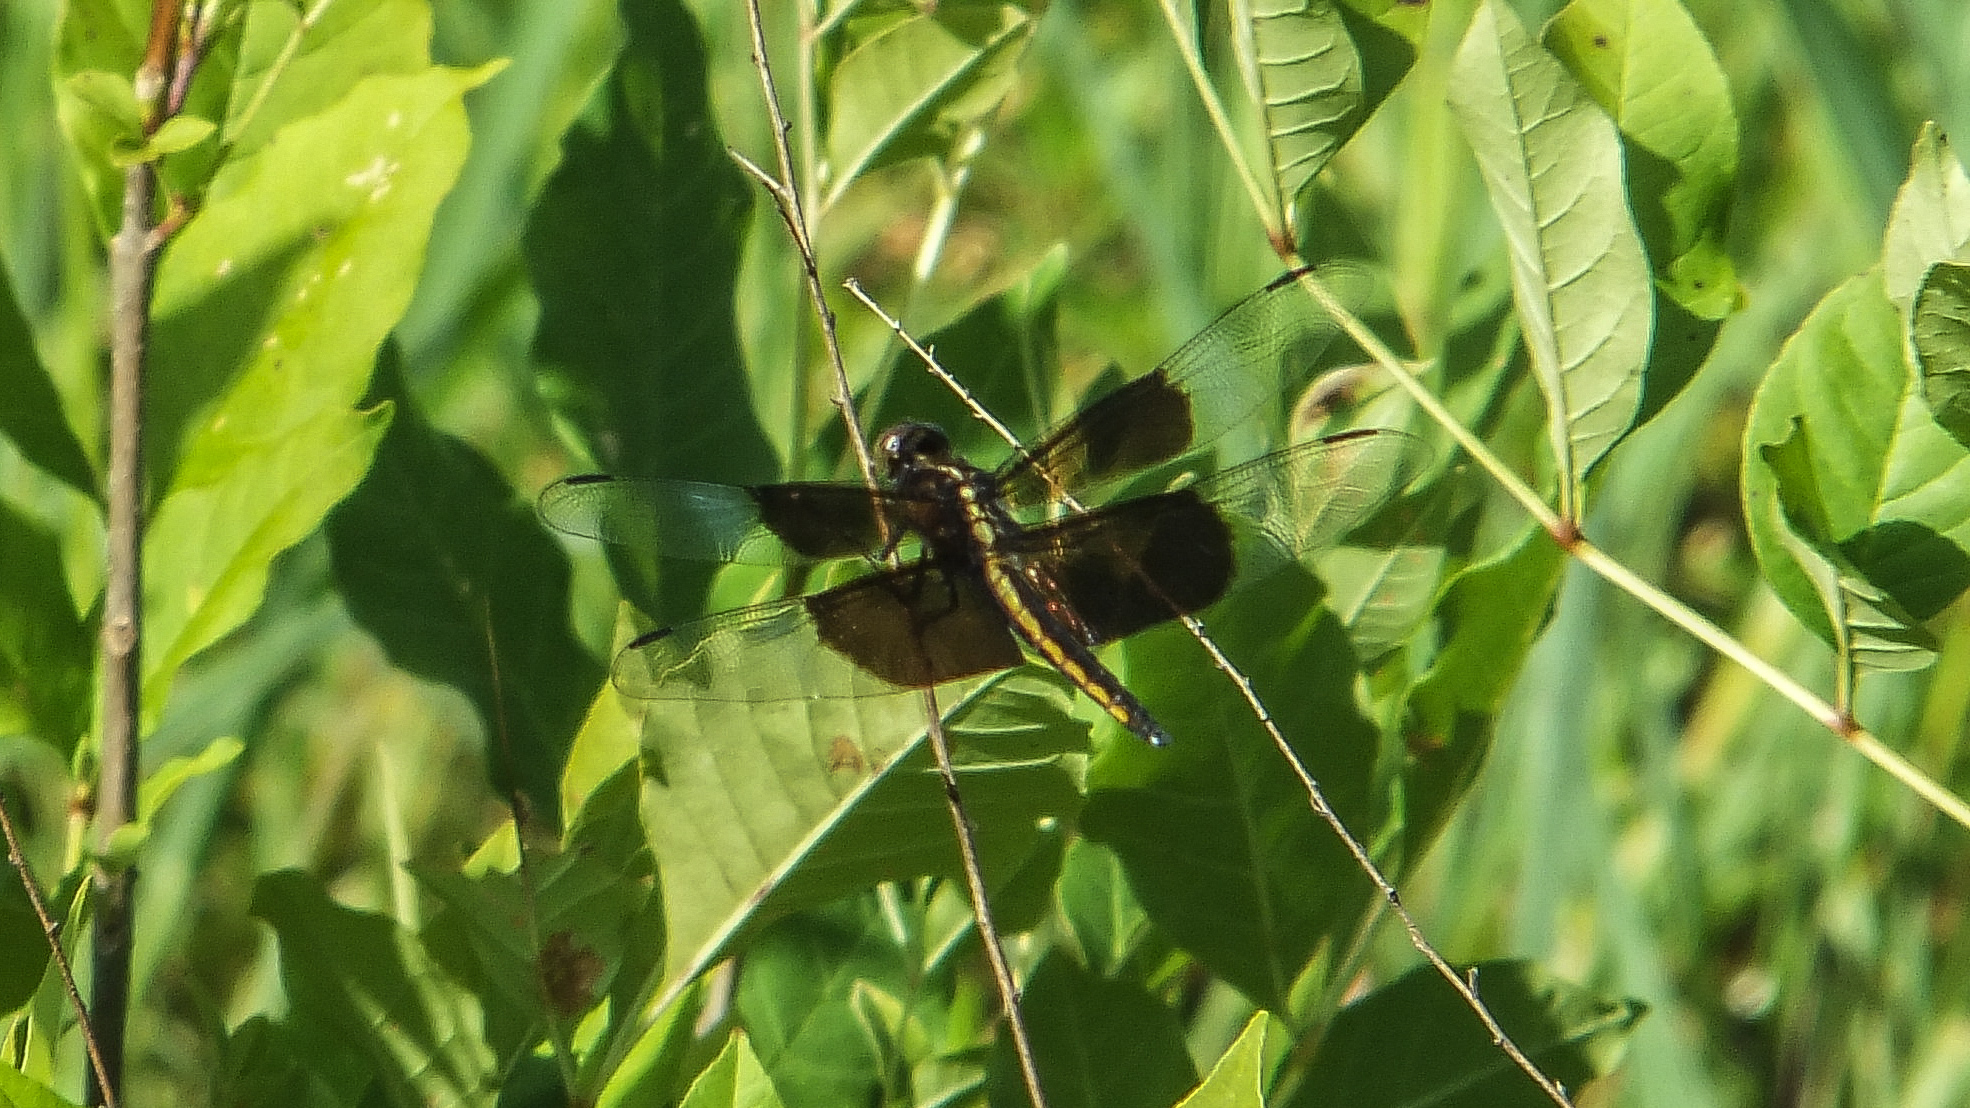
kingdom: Animalia
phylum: Arthropoda
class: Insecta
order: Odonata
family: Libellulidae
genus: Libellula
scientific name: Libellula luctuosa
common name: Widow skimmer
